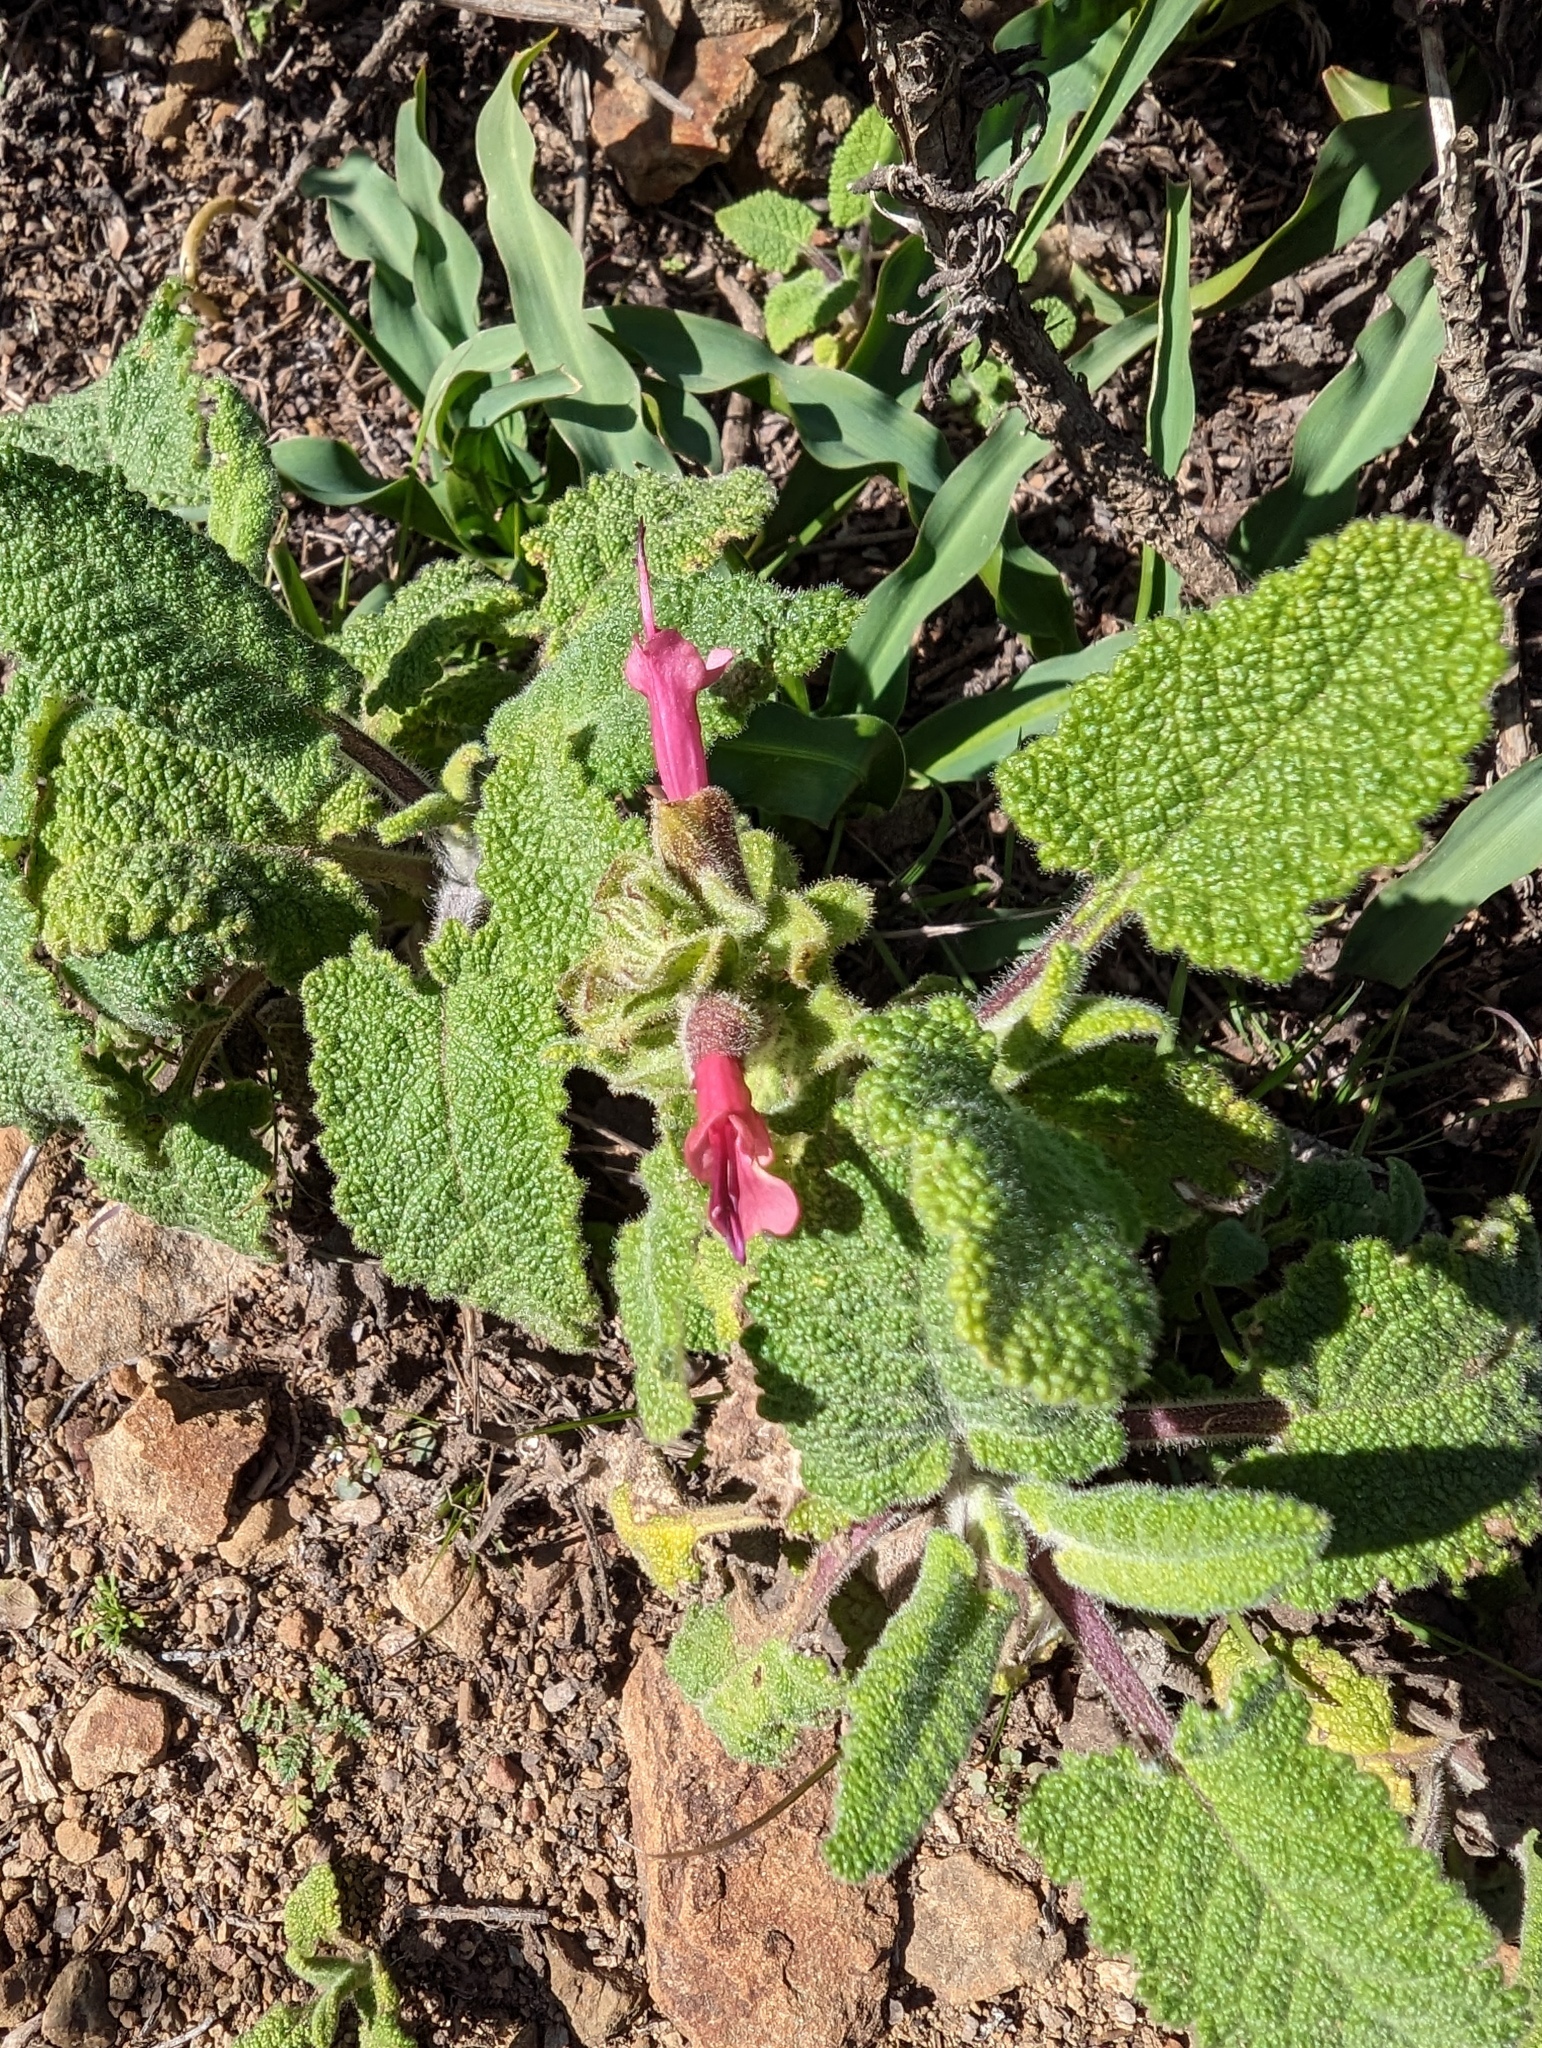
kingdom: Plantae
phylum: Tracheophyta
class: Magnoliopsida
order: Lamiales
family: Lamiaceae
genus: Salvia
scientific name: Salvia spathacea
